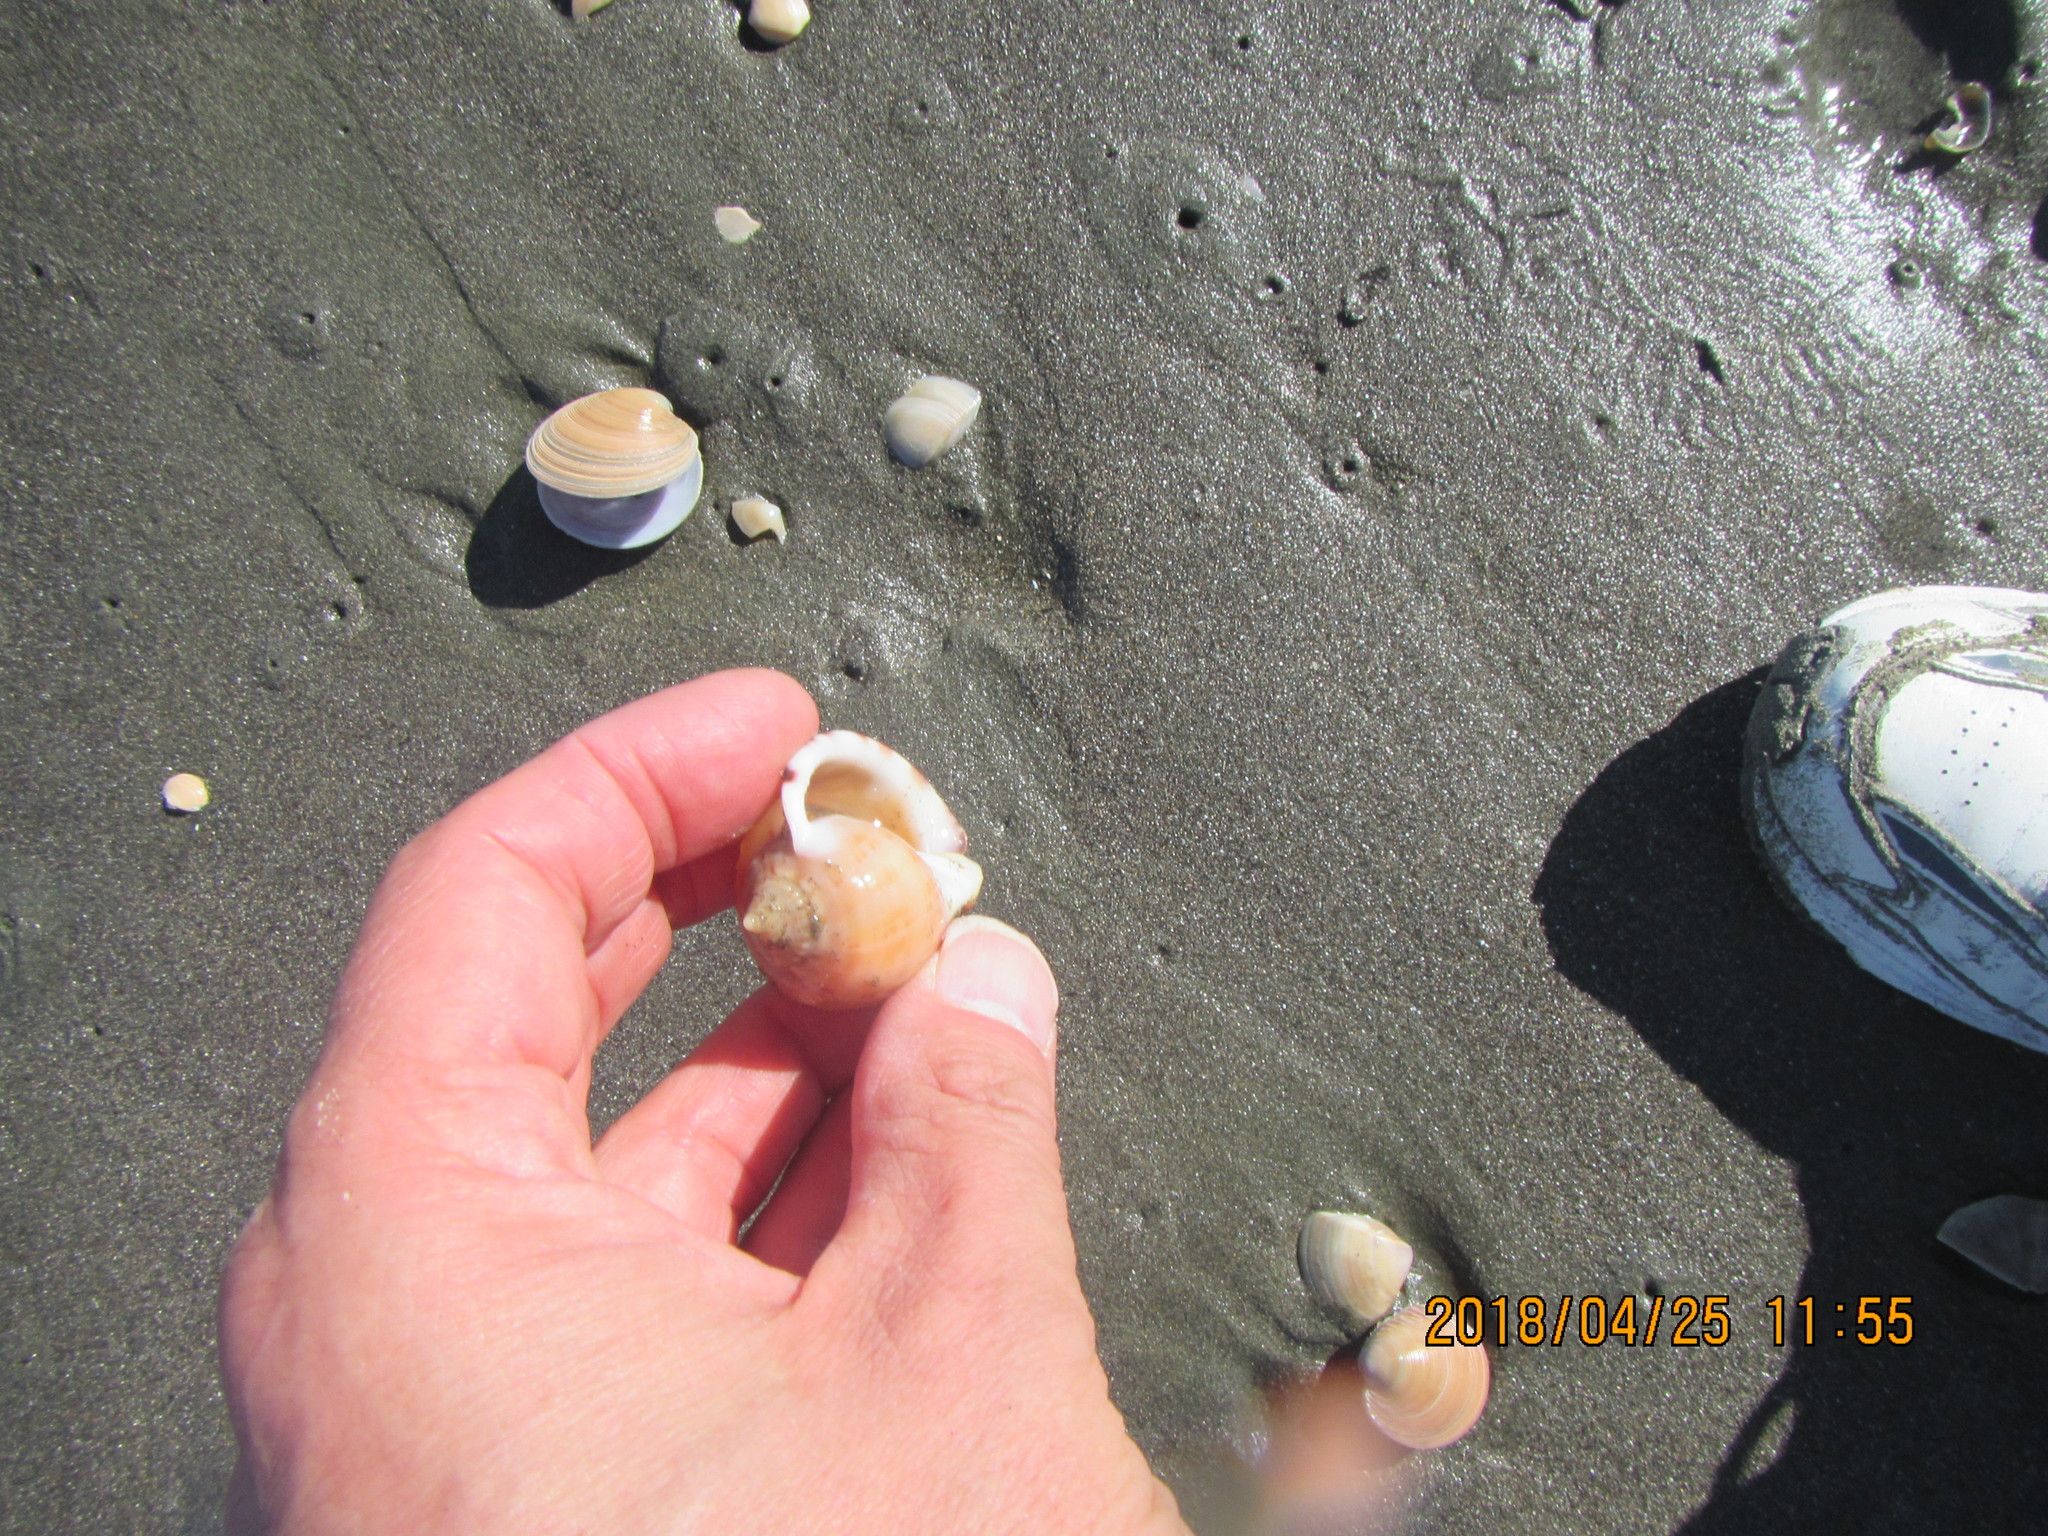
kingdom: Animalia
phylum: Mollusca
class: Gastropoda
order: Littorinimorpha
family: Cassidae
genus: Semicassis
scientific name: Semicassis pyrum
